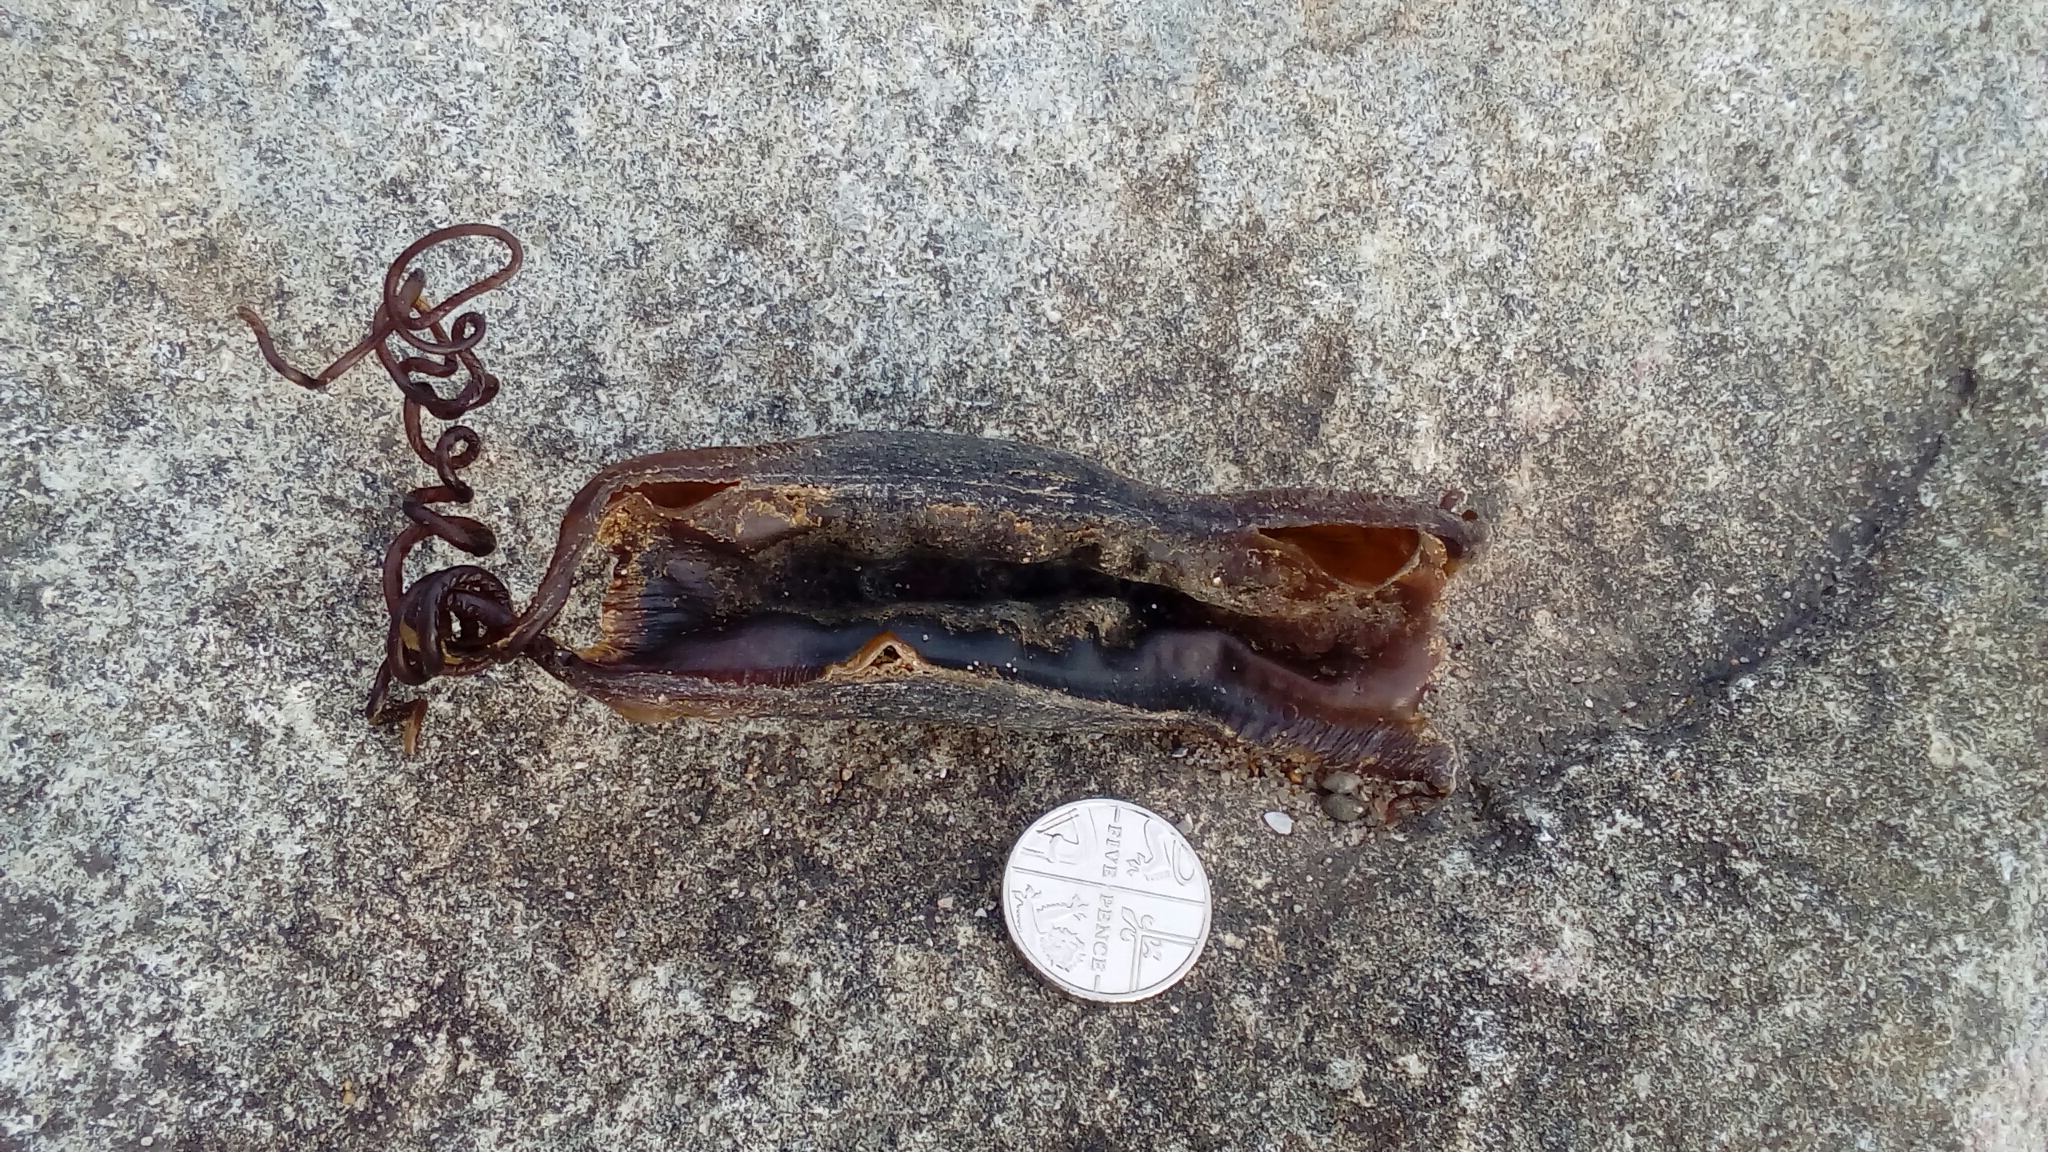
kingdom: Animalia
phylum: Chordata
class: Elasmobranchii
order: Carcharhiniformes
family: Scyliorhinidae
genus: Scyliorhinus
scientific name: Scyliorhinus canicula
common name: Lesser spotted dogfish
